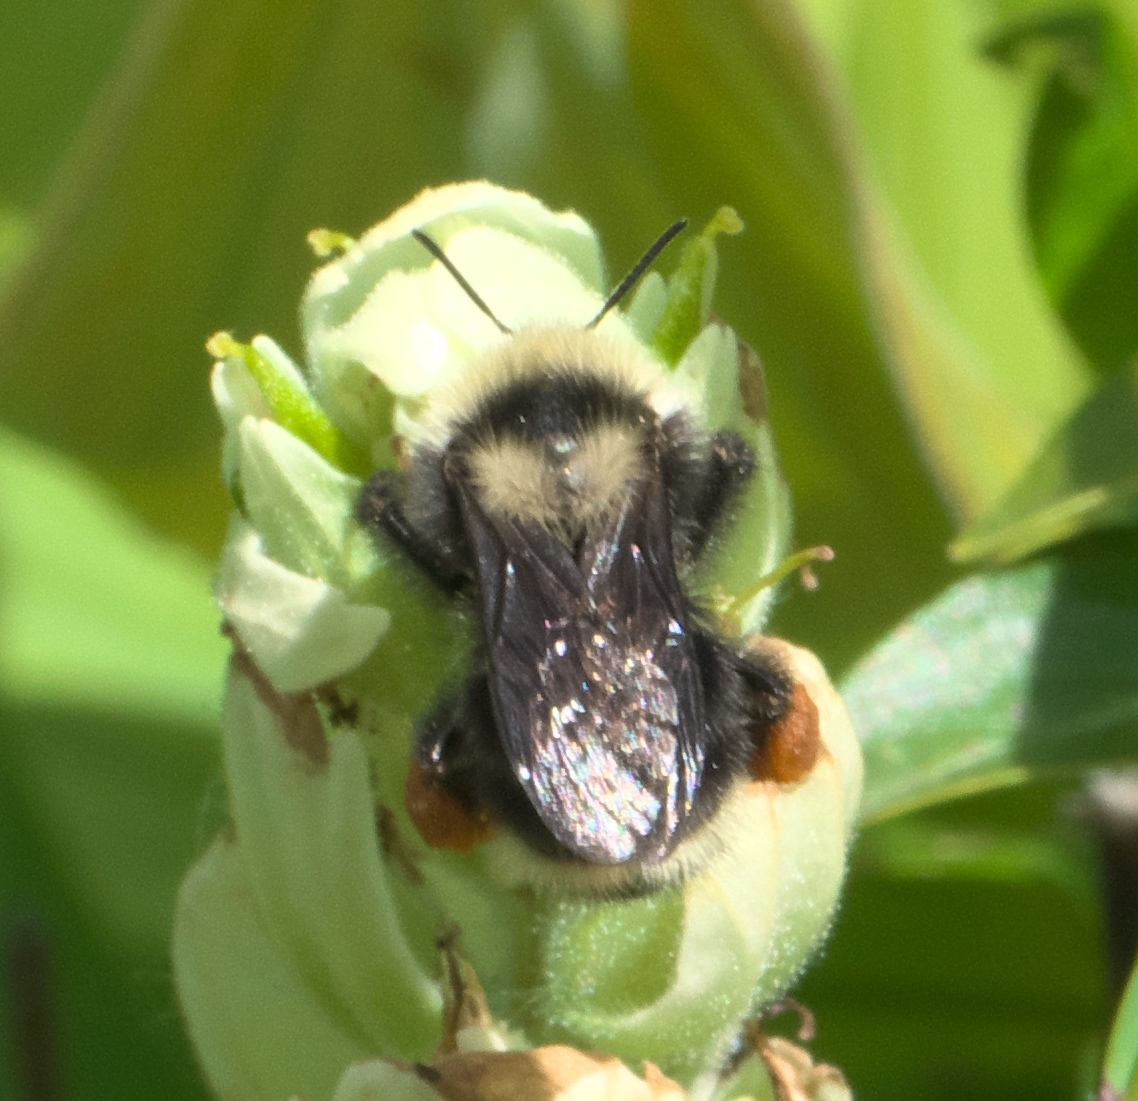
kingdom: Animalia
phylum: Arthropoda
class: Insecta
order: Hymenoptera
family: Apidae
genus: Bombus
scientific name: Bombus californicus
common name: California bumble bee
